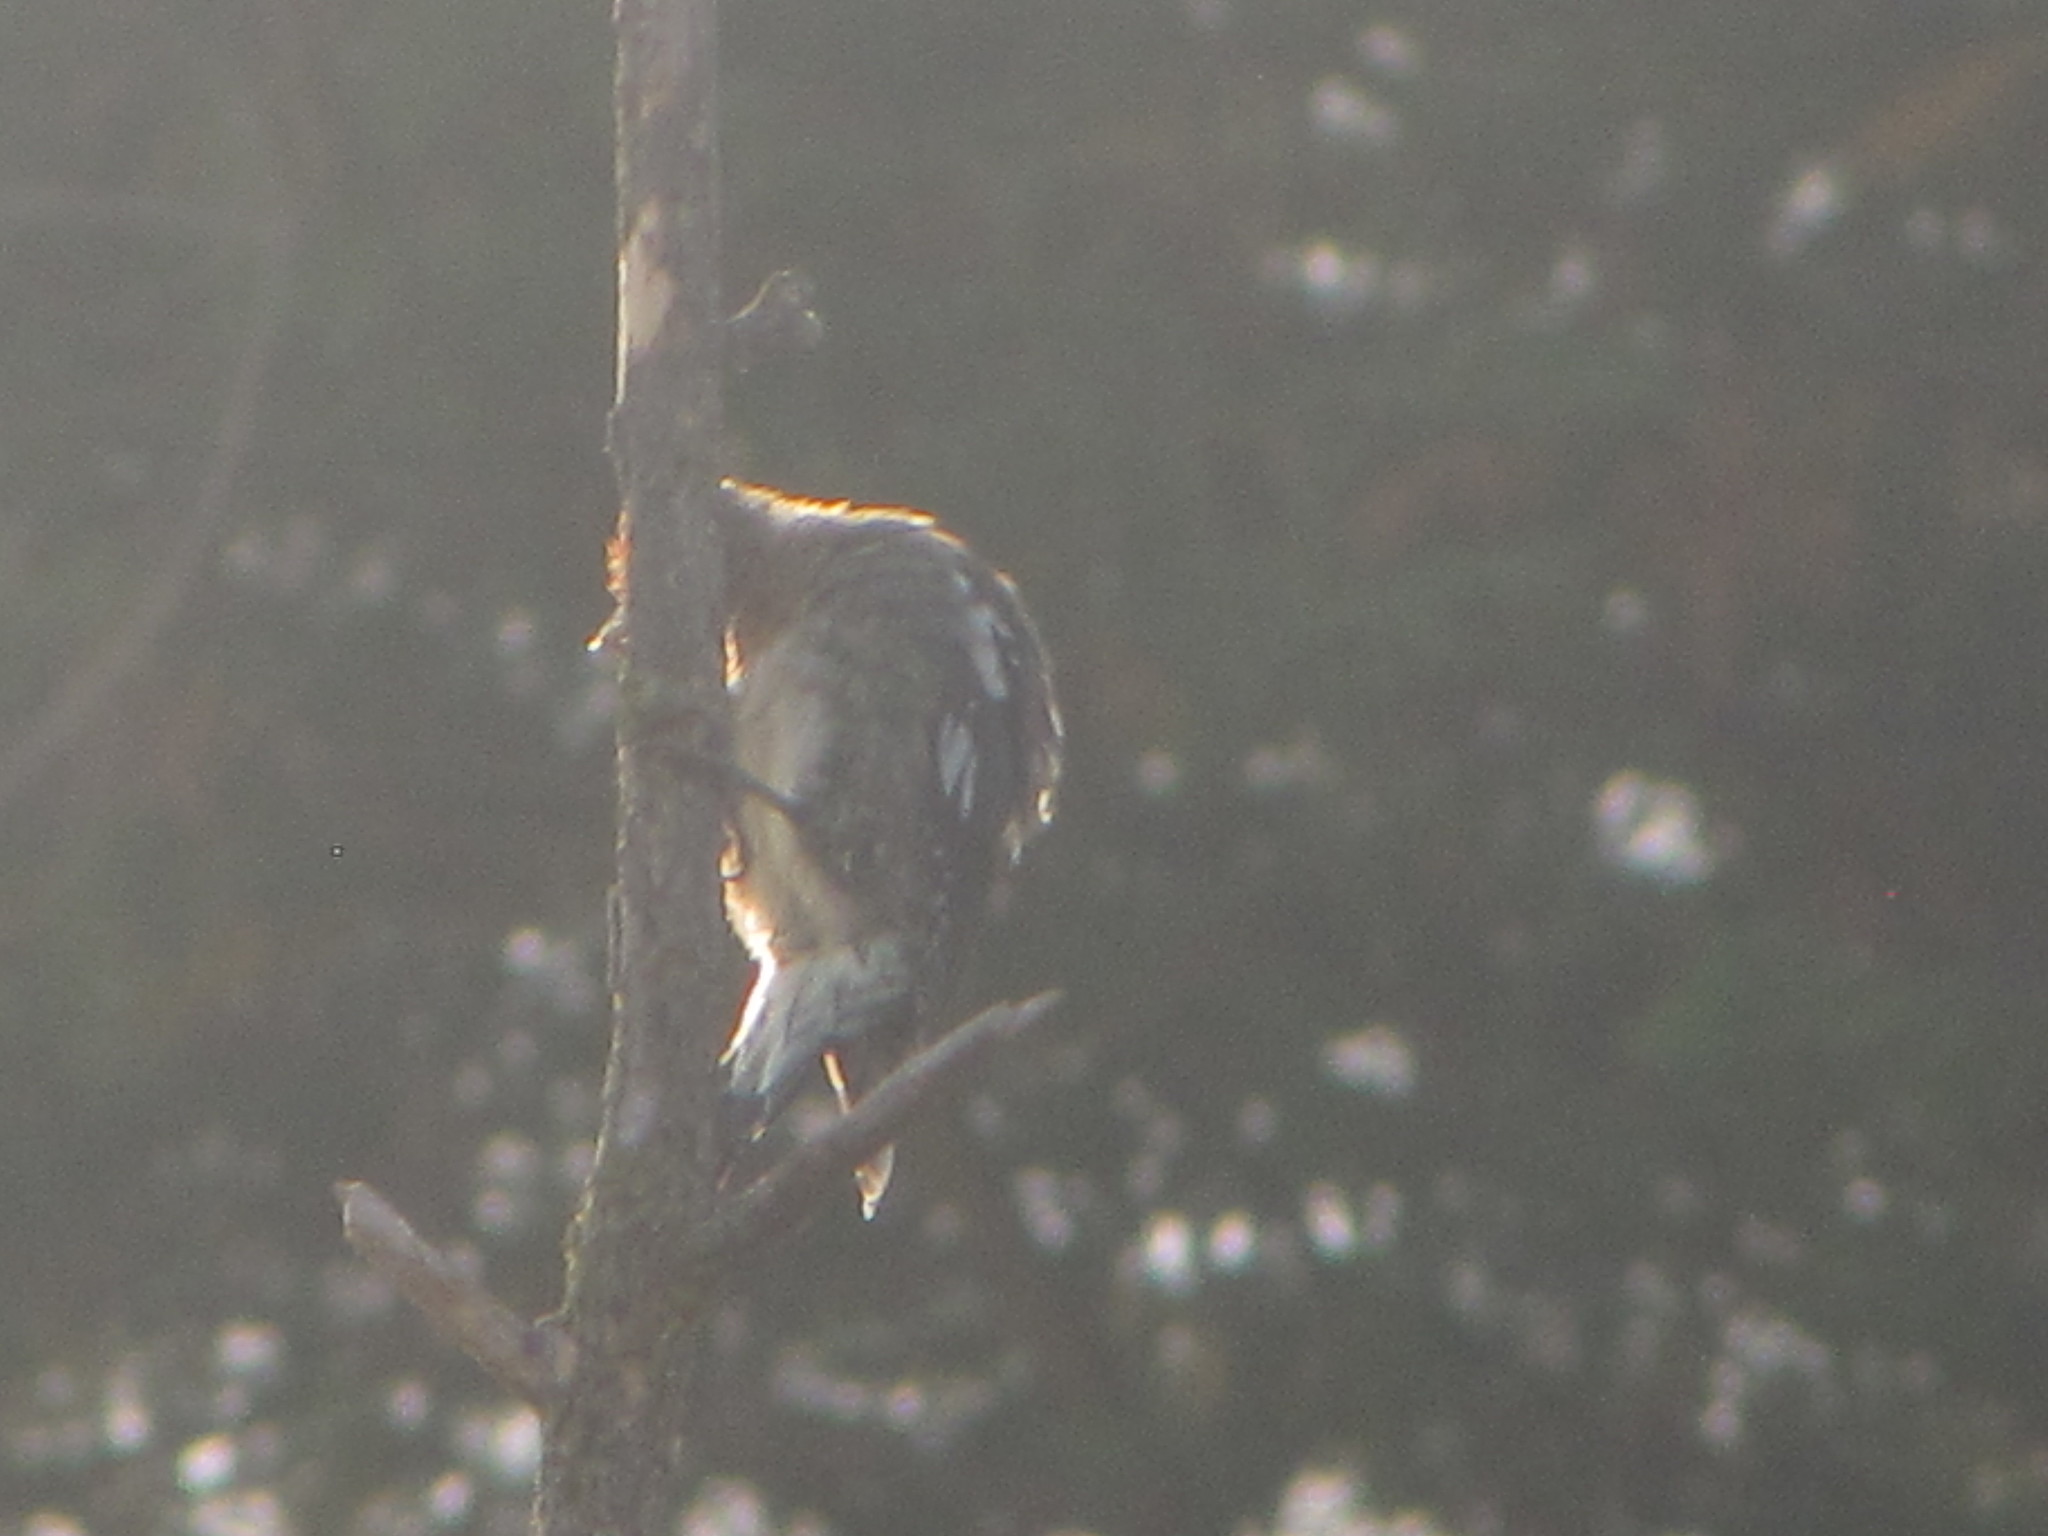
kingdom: Animalia
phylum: Chordata
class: Aves
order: Piciformes
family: Picidae
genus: Sphyrapicus
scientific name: Sphyrapicus ruber
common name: Red-breasted sapsucker
